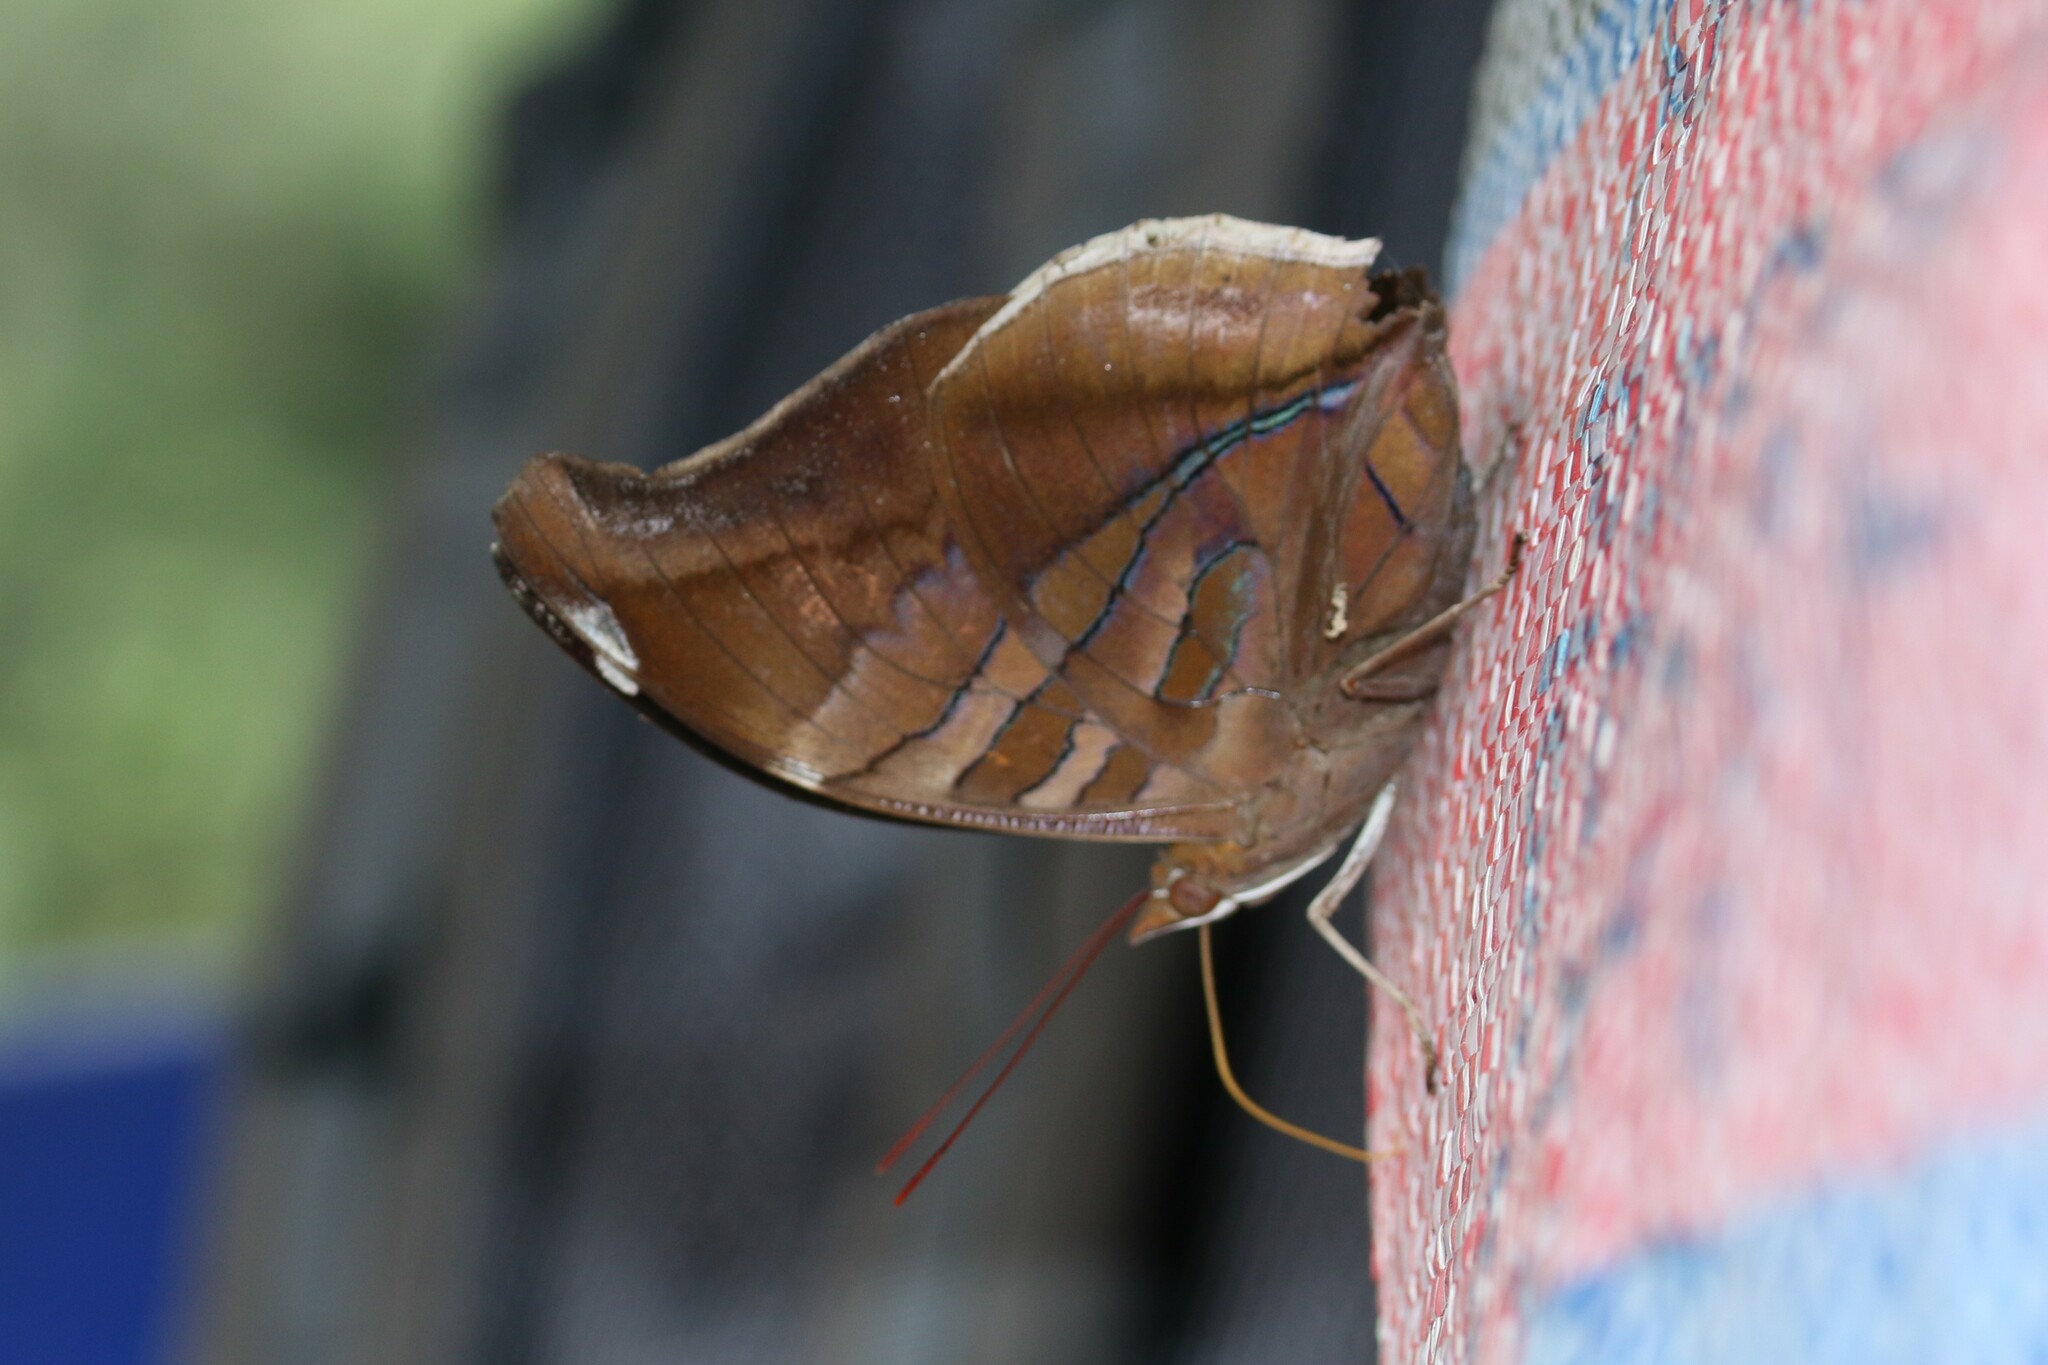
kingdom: Animalia
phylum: Arthropoda
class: Insecta
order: Lepidoptera
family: Nymphalidae
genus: Historis
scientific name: Historis odius
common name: Orion cecropian
